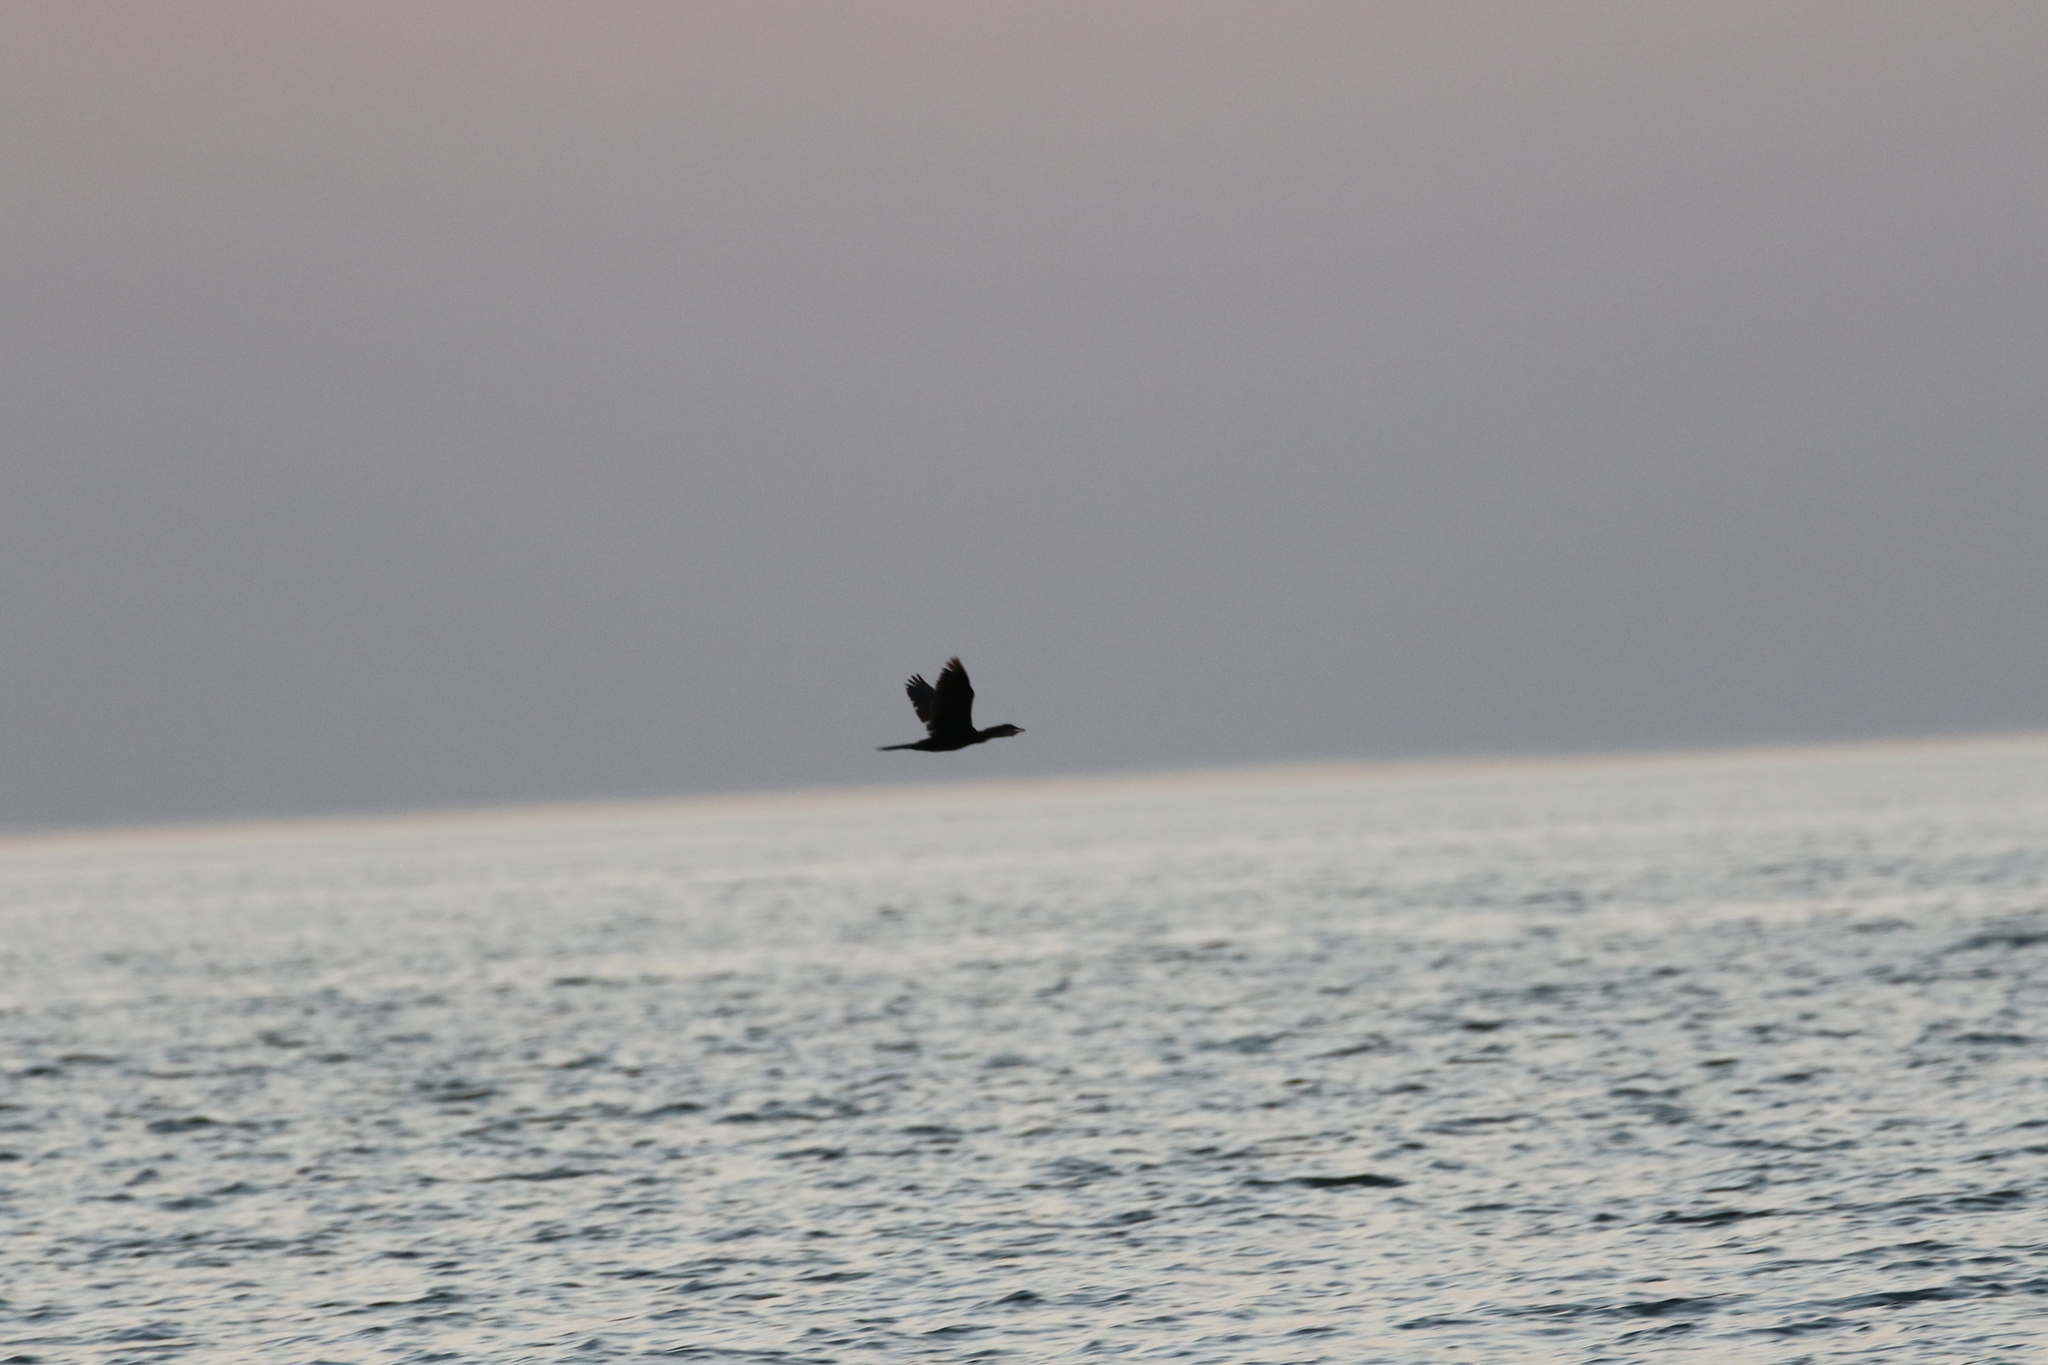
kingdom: Animalia
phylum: Chordata
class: Aves
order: Suliformes
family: Phalacrocoracidae
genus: Microcarbo
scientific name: Microcarbo africanus
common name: Long-tailed cormorant
